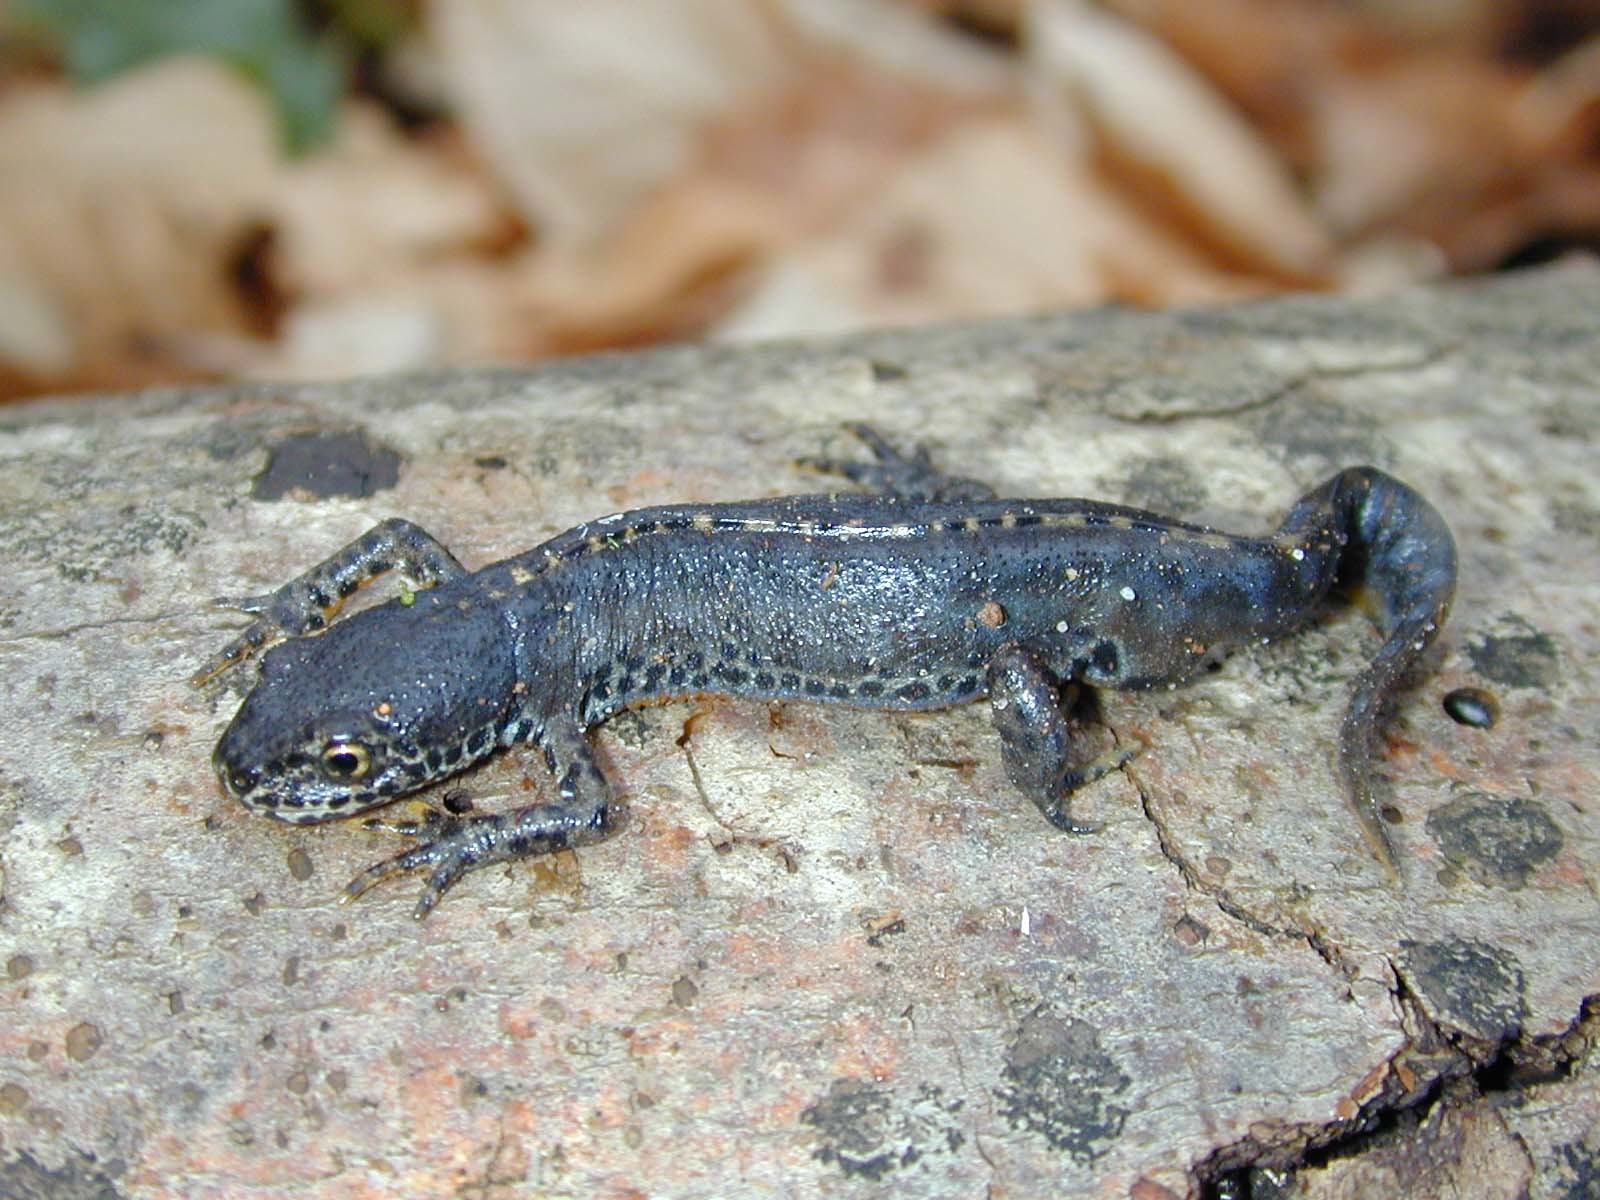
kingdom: Animalia
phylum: Chordata
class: Amphibia
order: Caudata
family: Salamandridae
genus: Ichthyosaura
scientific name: Ichthyosaura alpestris
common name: Alpine newt
